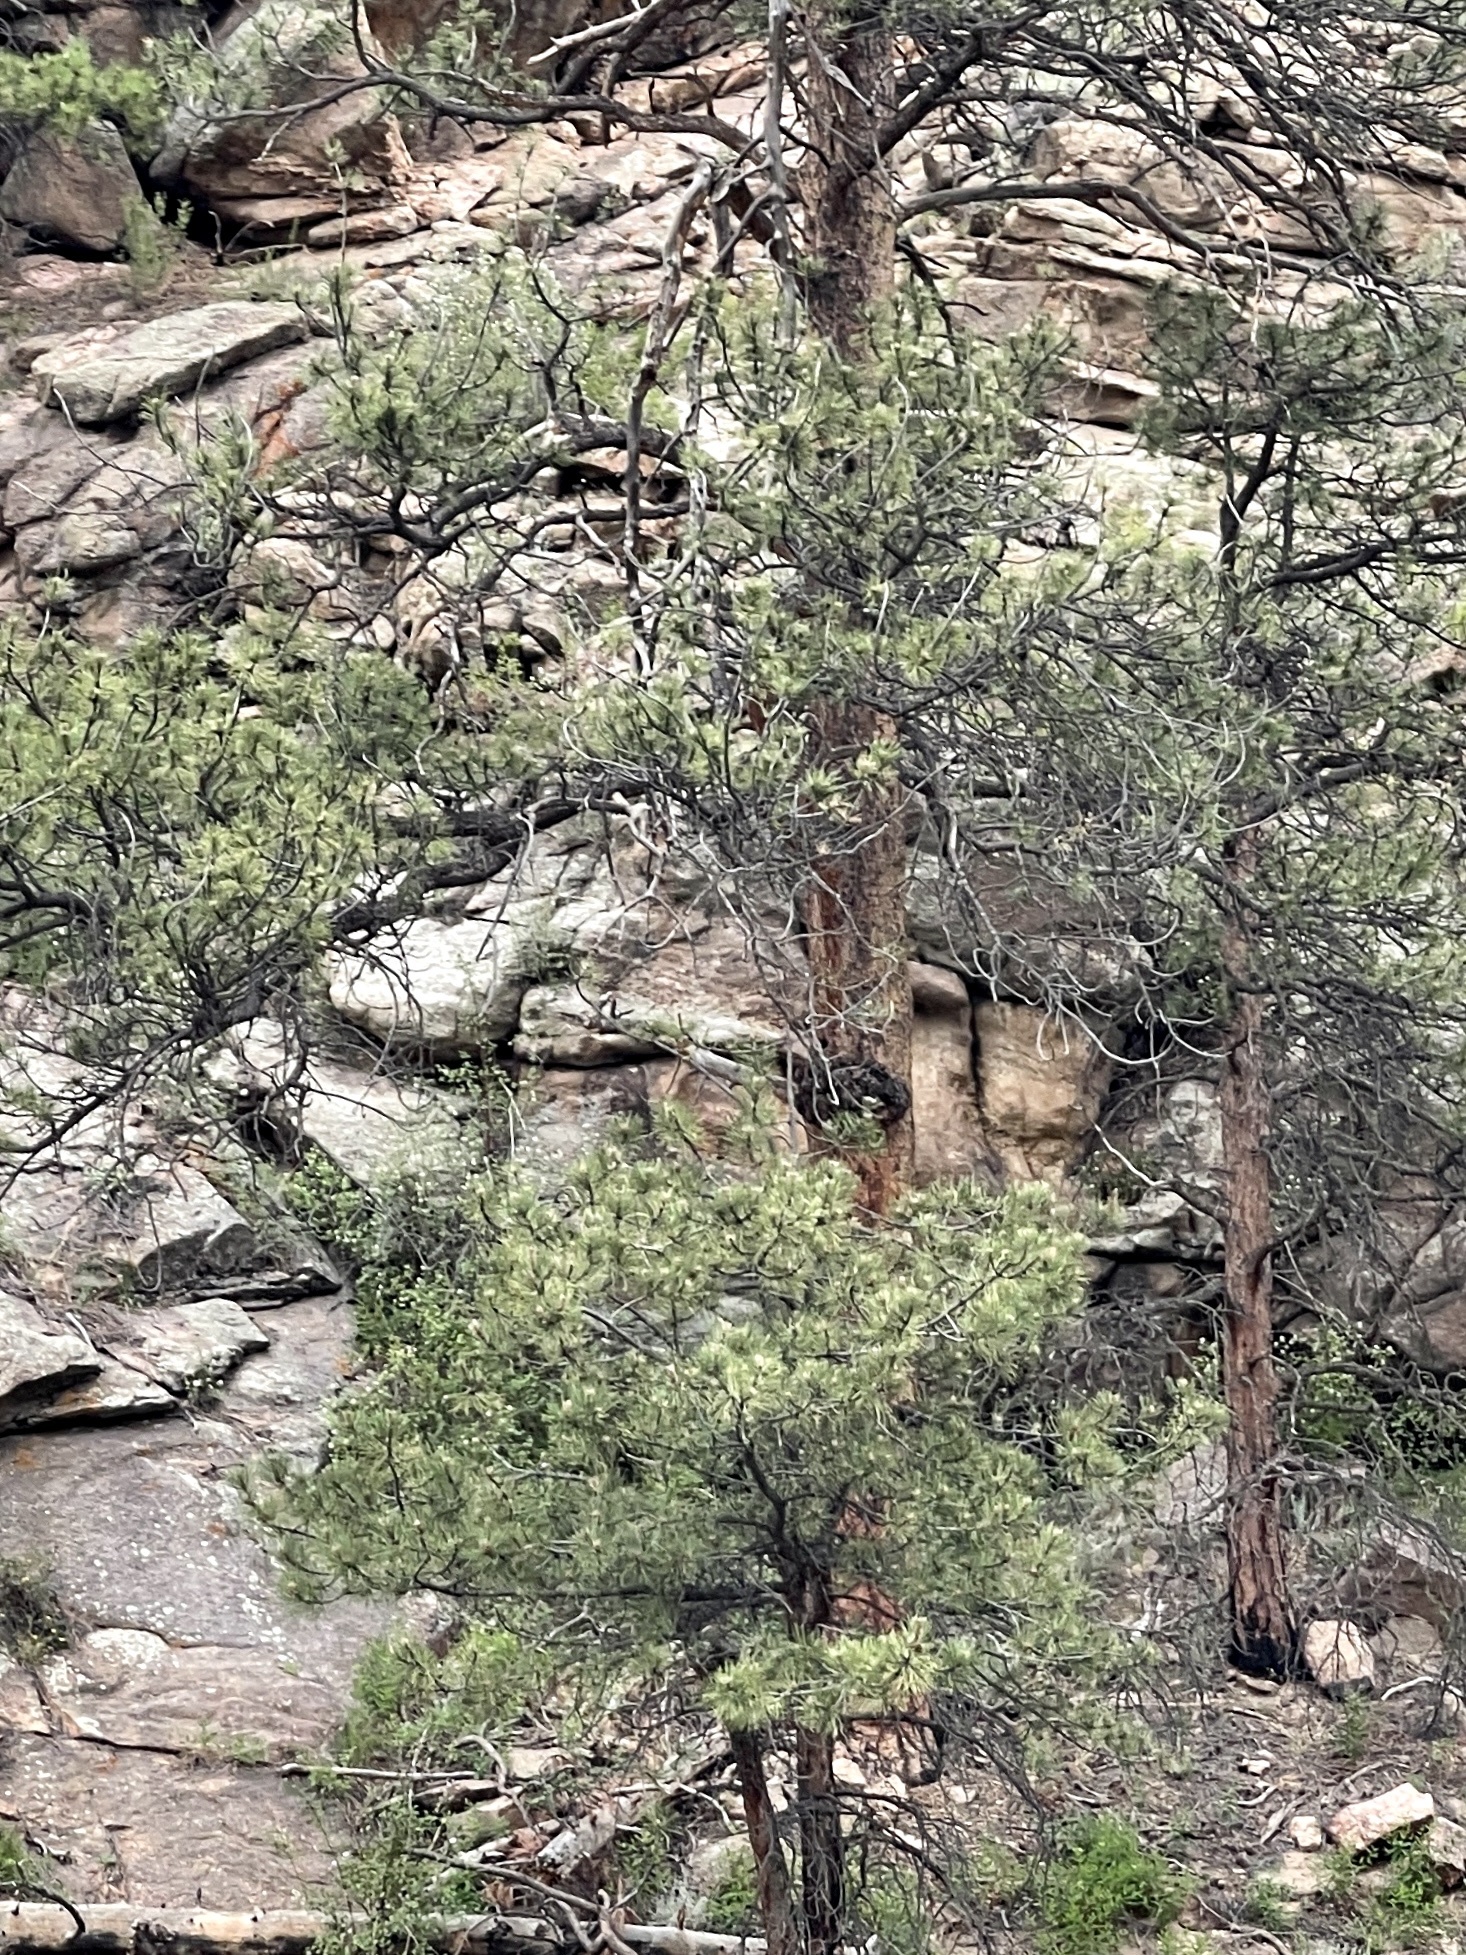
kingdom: Plantae
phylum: Tracheophyta
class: Pinopsida
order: Pinales
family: Pinaceae
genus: Pinus
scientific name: Pinus ponderosa
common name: Western yellow-pine
